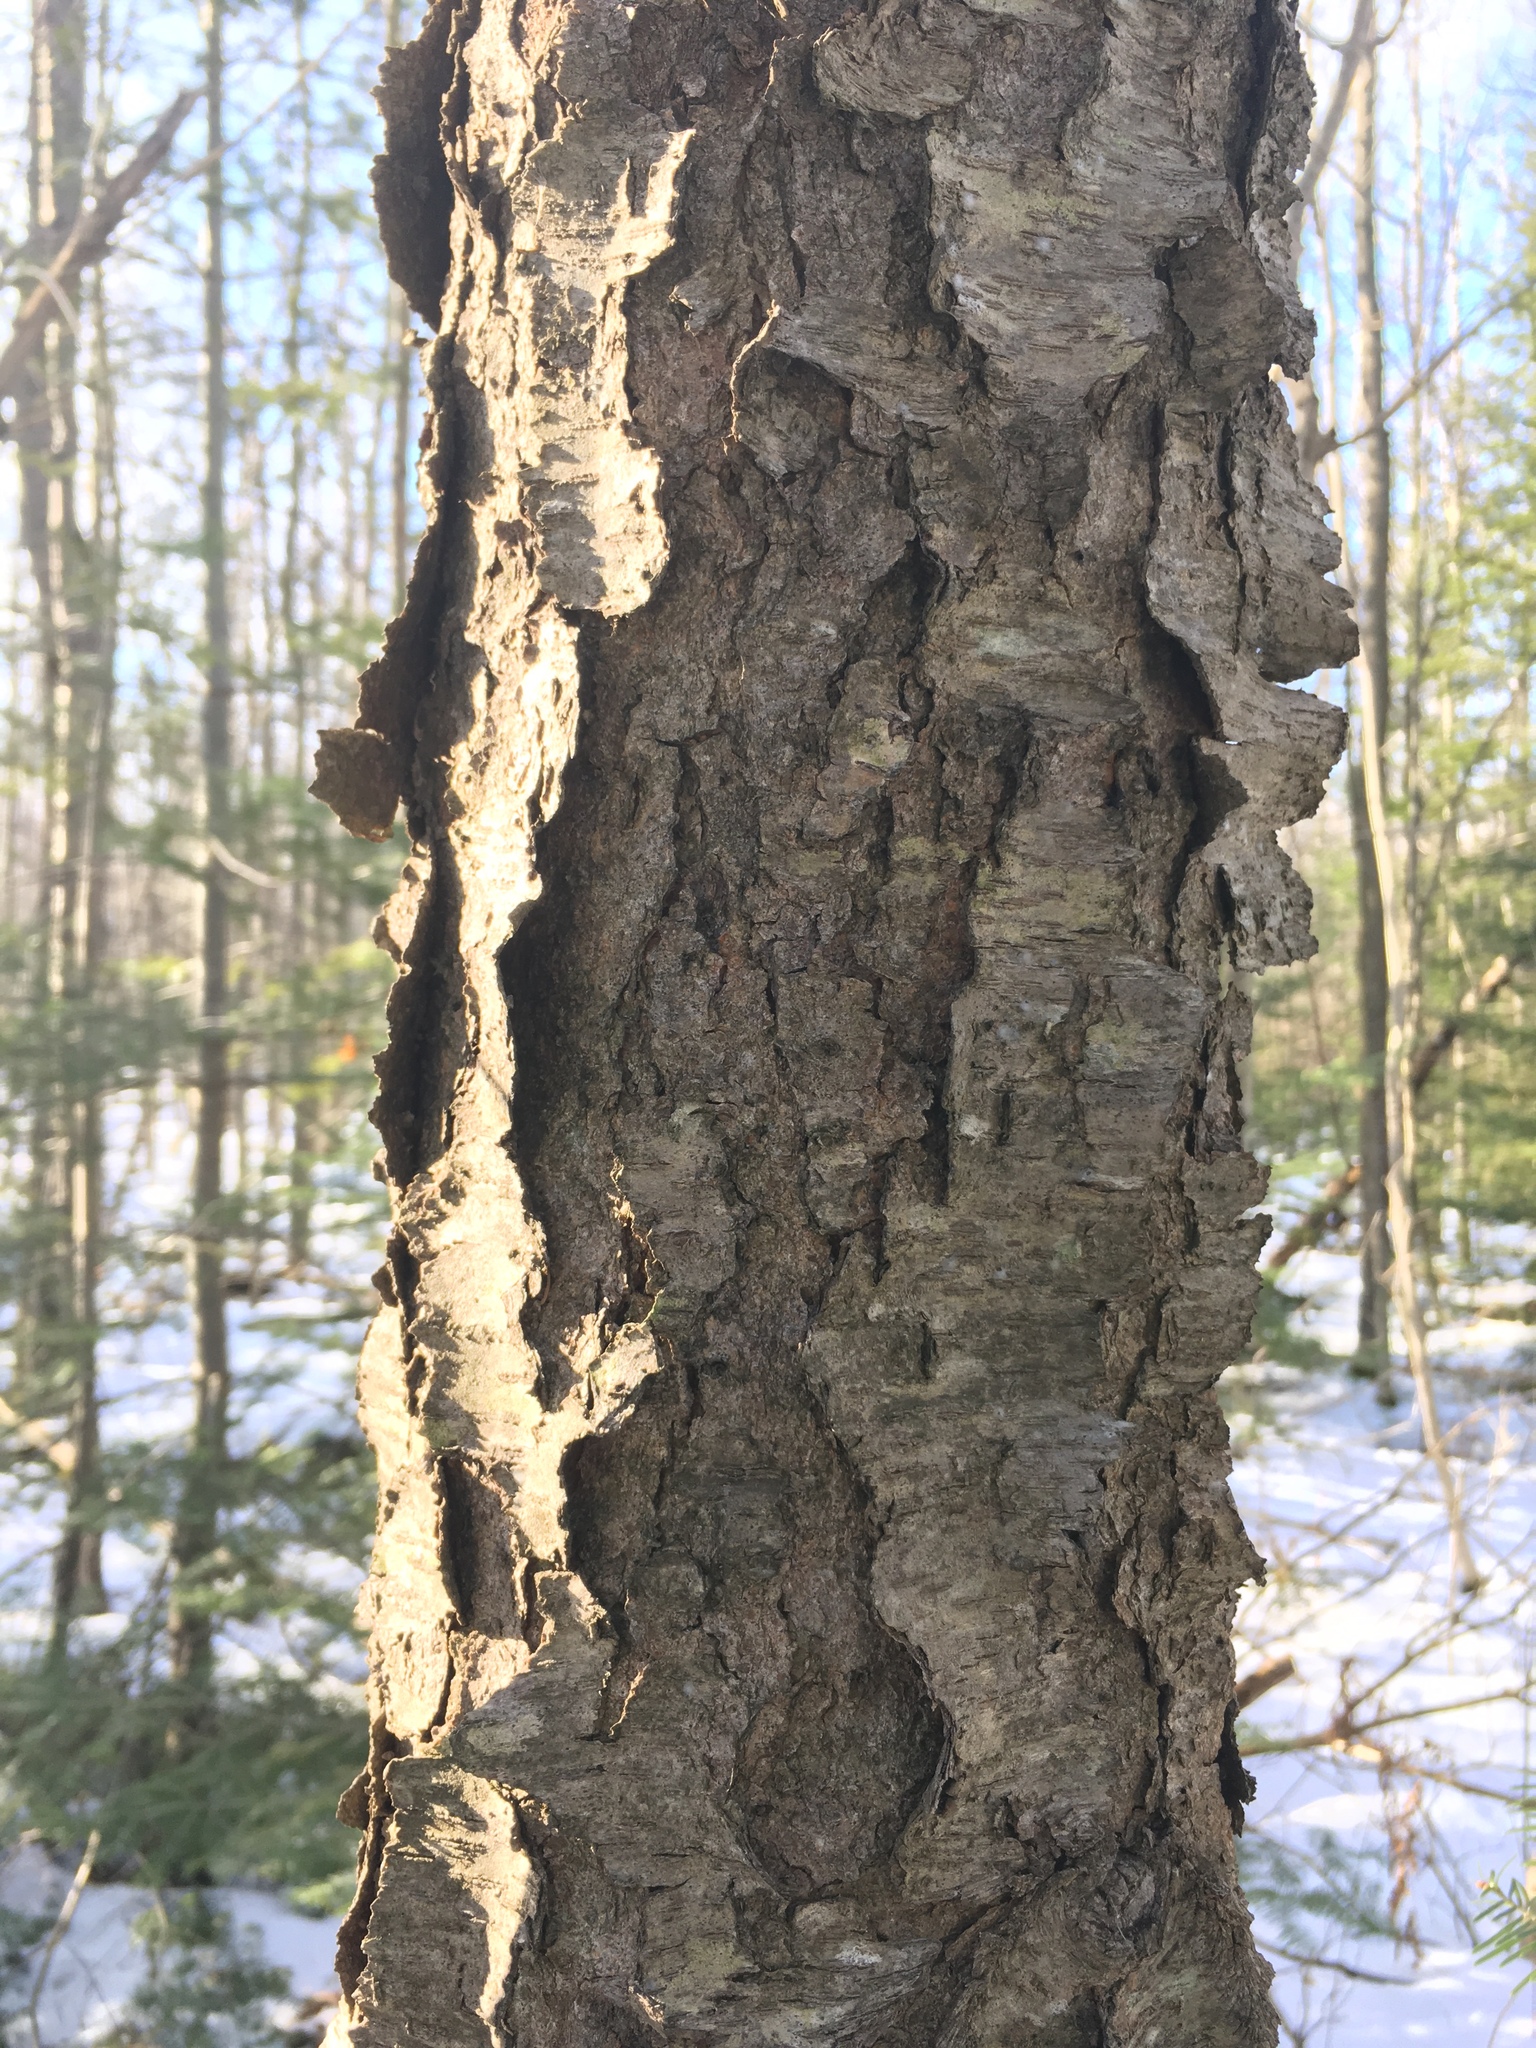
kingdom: Plantae
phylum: Tracheophyta
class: Magnoliopsida
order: Rosales
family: Rosaceae
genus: Prunus
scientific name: Prunus serotina
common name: Black cherry
